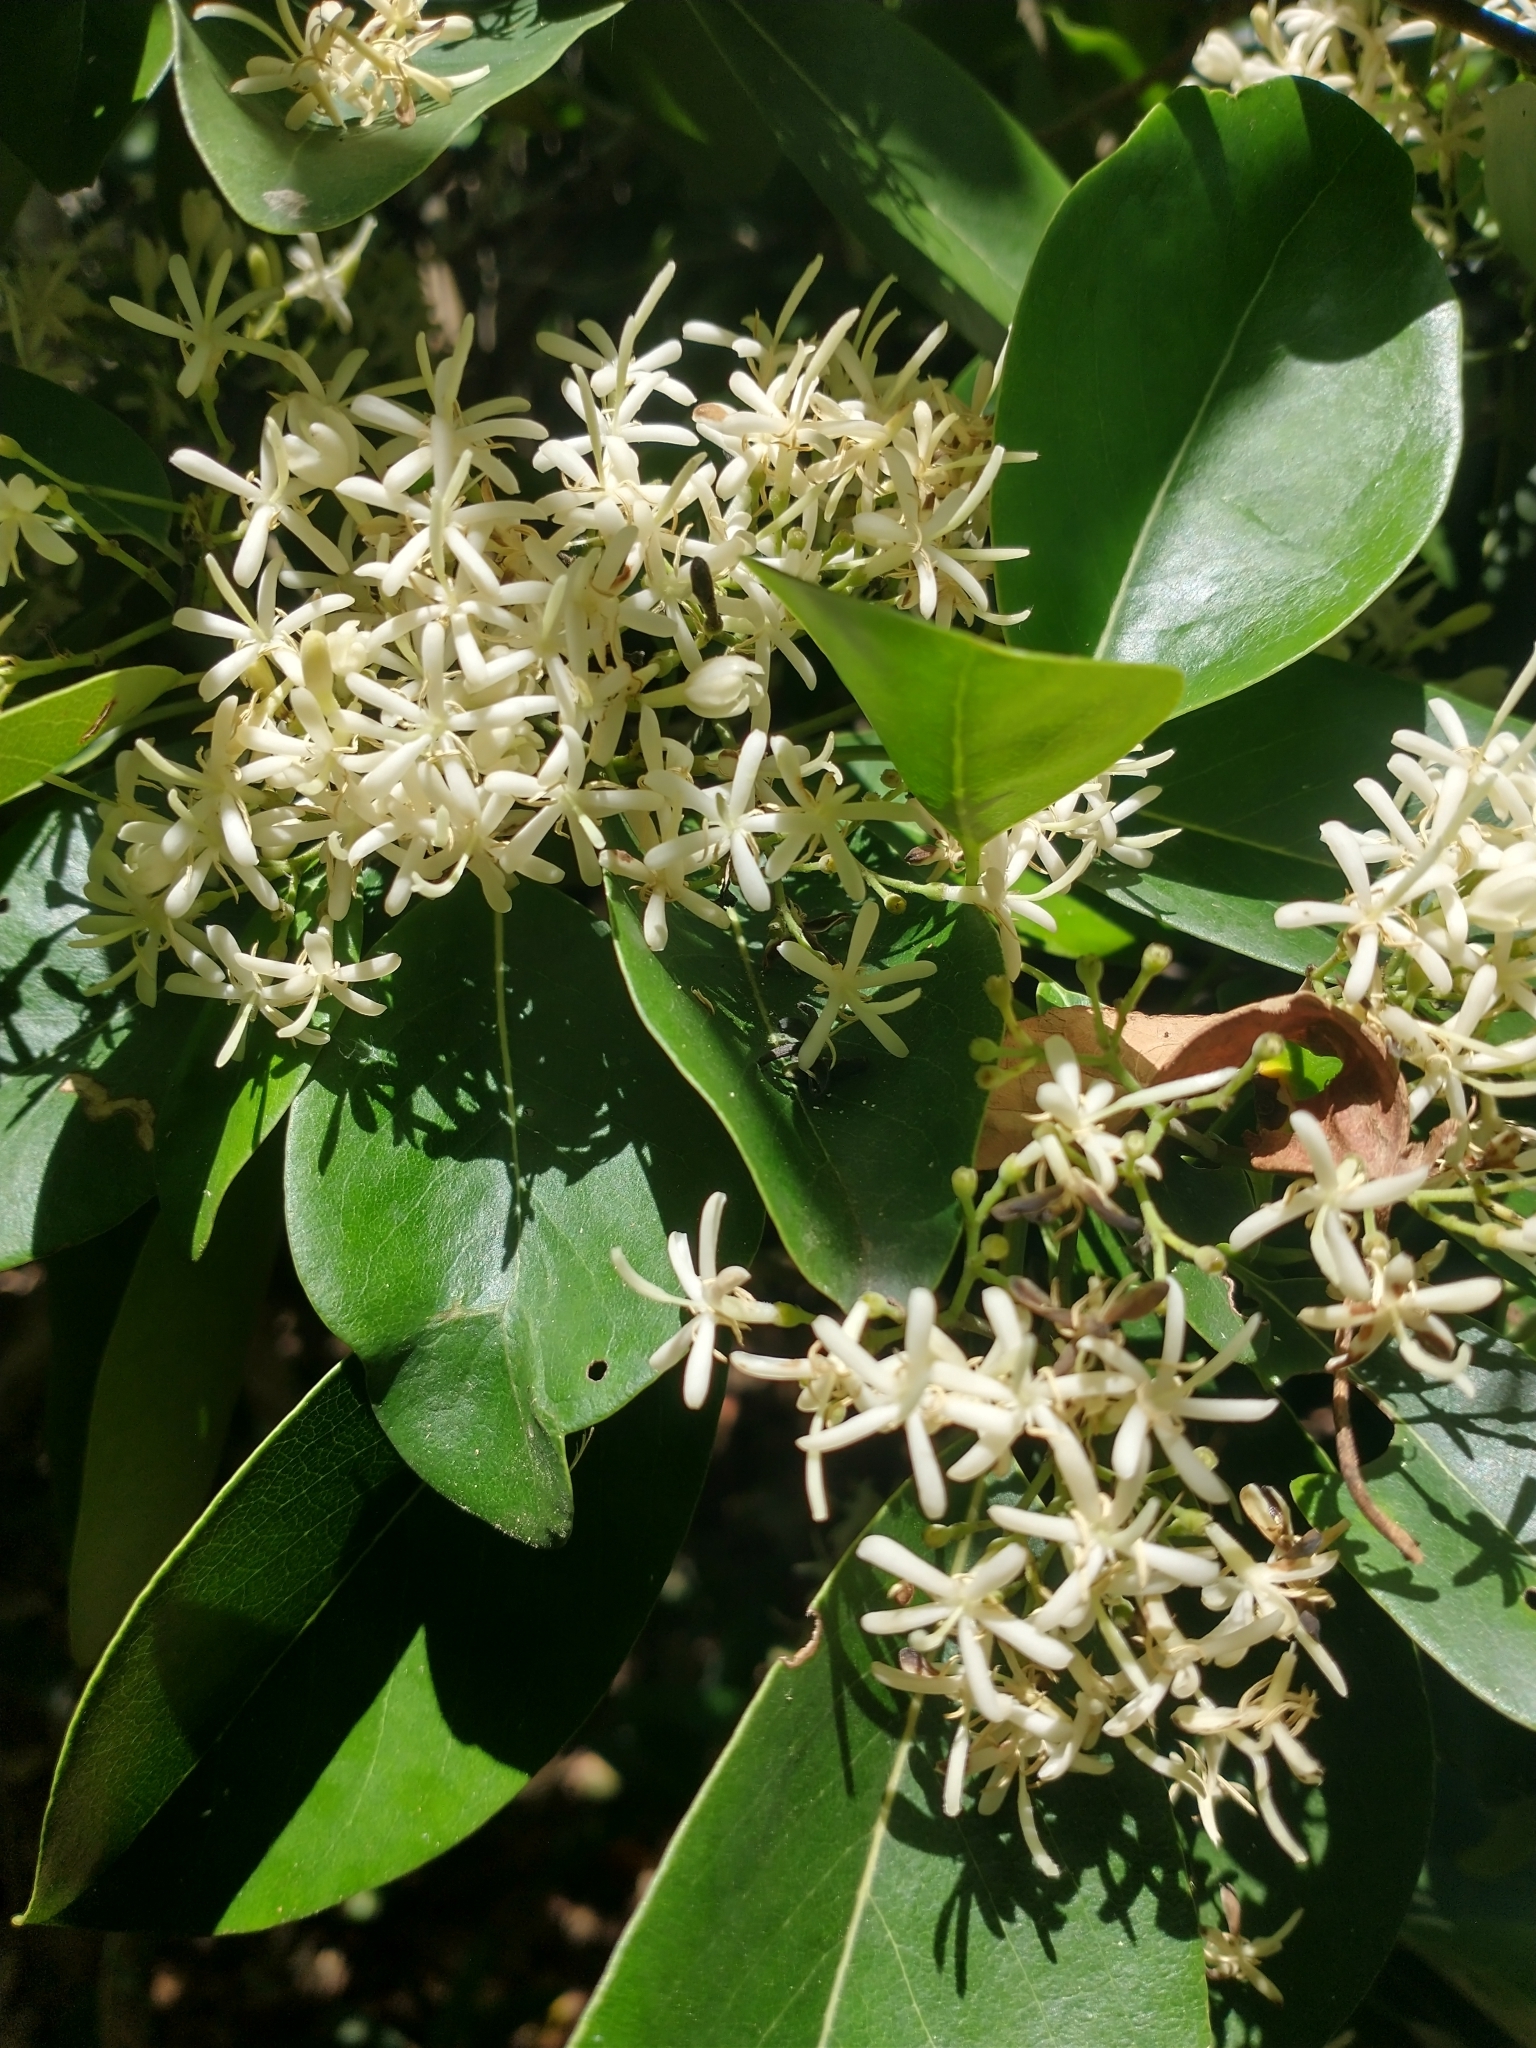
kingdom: Plantae
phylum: Tracheophyta
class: Magnoliopsida
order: Gentianales
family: Rubiaceae
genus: Coptosperma
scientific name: Coptosperma borbonicum
